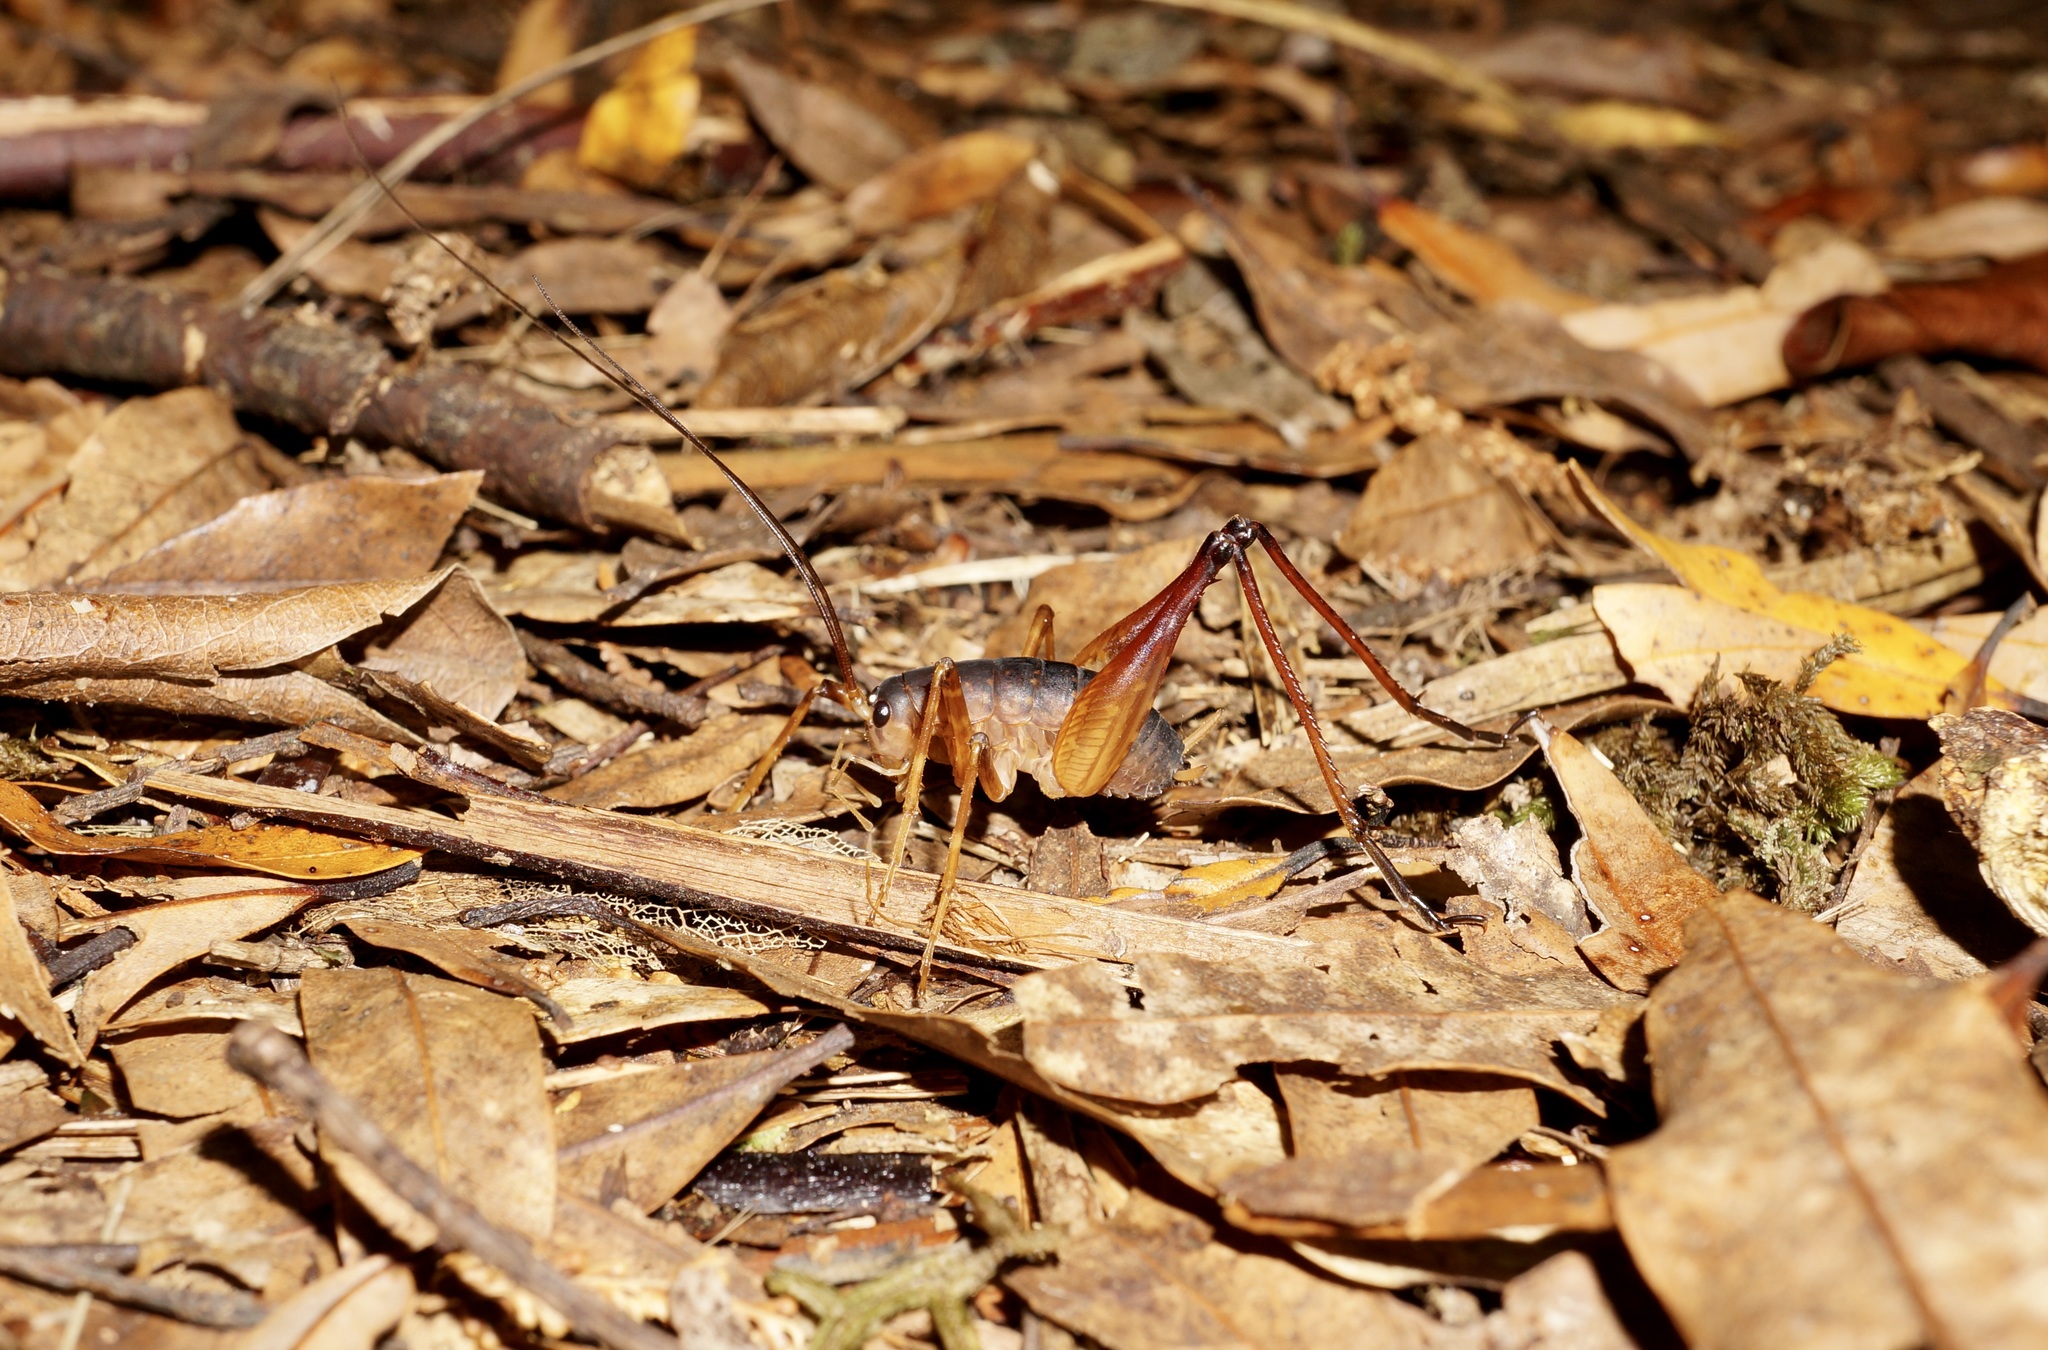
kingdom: Animalia
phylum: Arthropoda
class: Insecta
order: Orthoptera
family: Rhaphidophoridae
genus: Pachyrhamma
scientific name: Pachyrhamma longicauda
